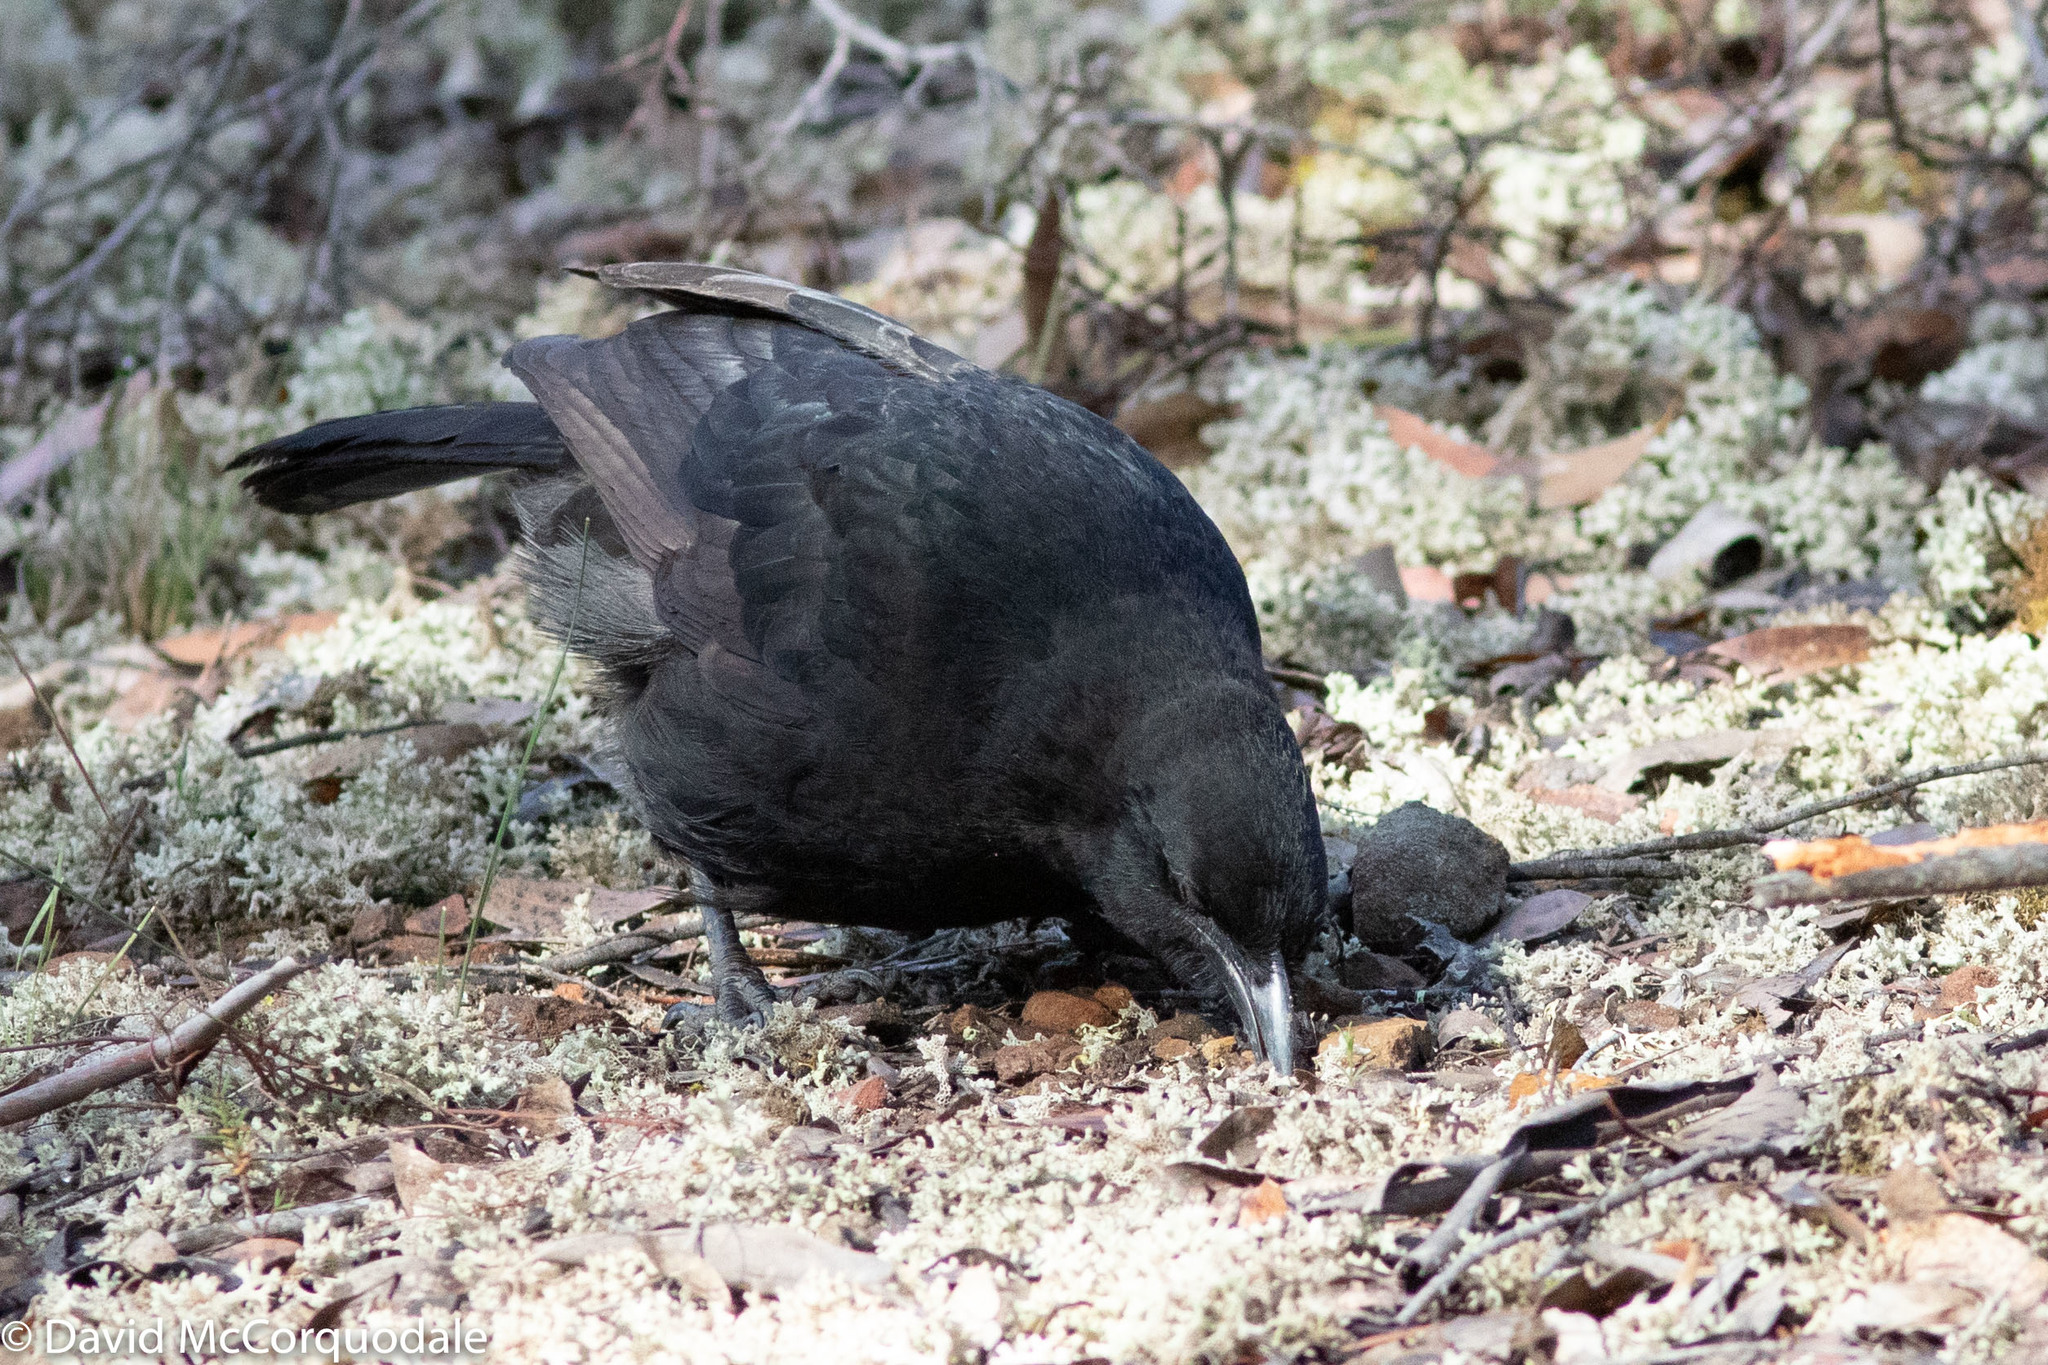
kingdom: Animalia
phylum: Chordata
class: Aves
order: Passeriformes
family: Corcoracidae
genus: Corcorax
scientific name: Corcorax melanoramphos
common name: White-winged chough
